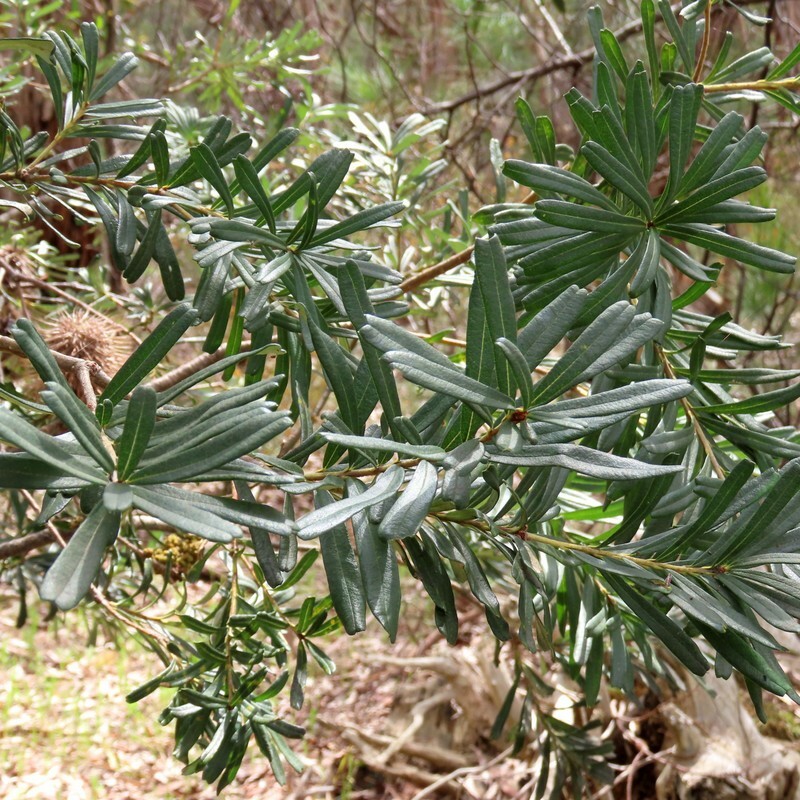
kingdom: Plantae
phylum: Tracheophyta
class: Magnoliopsida
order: Proteales
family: Proteaceae
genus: Banksia
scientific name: Banksia marginata
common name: Silver banksia
